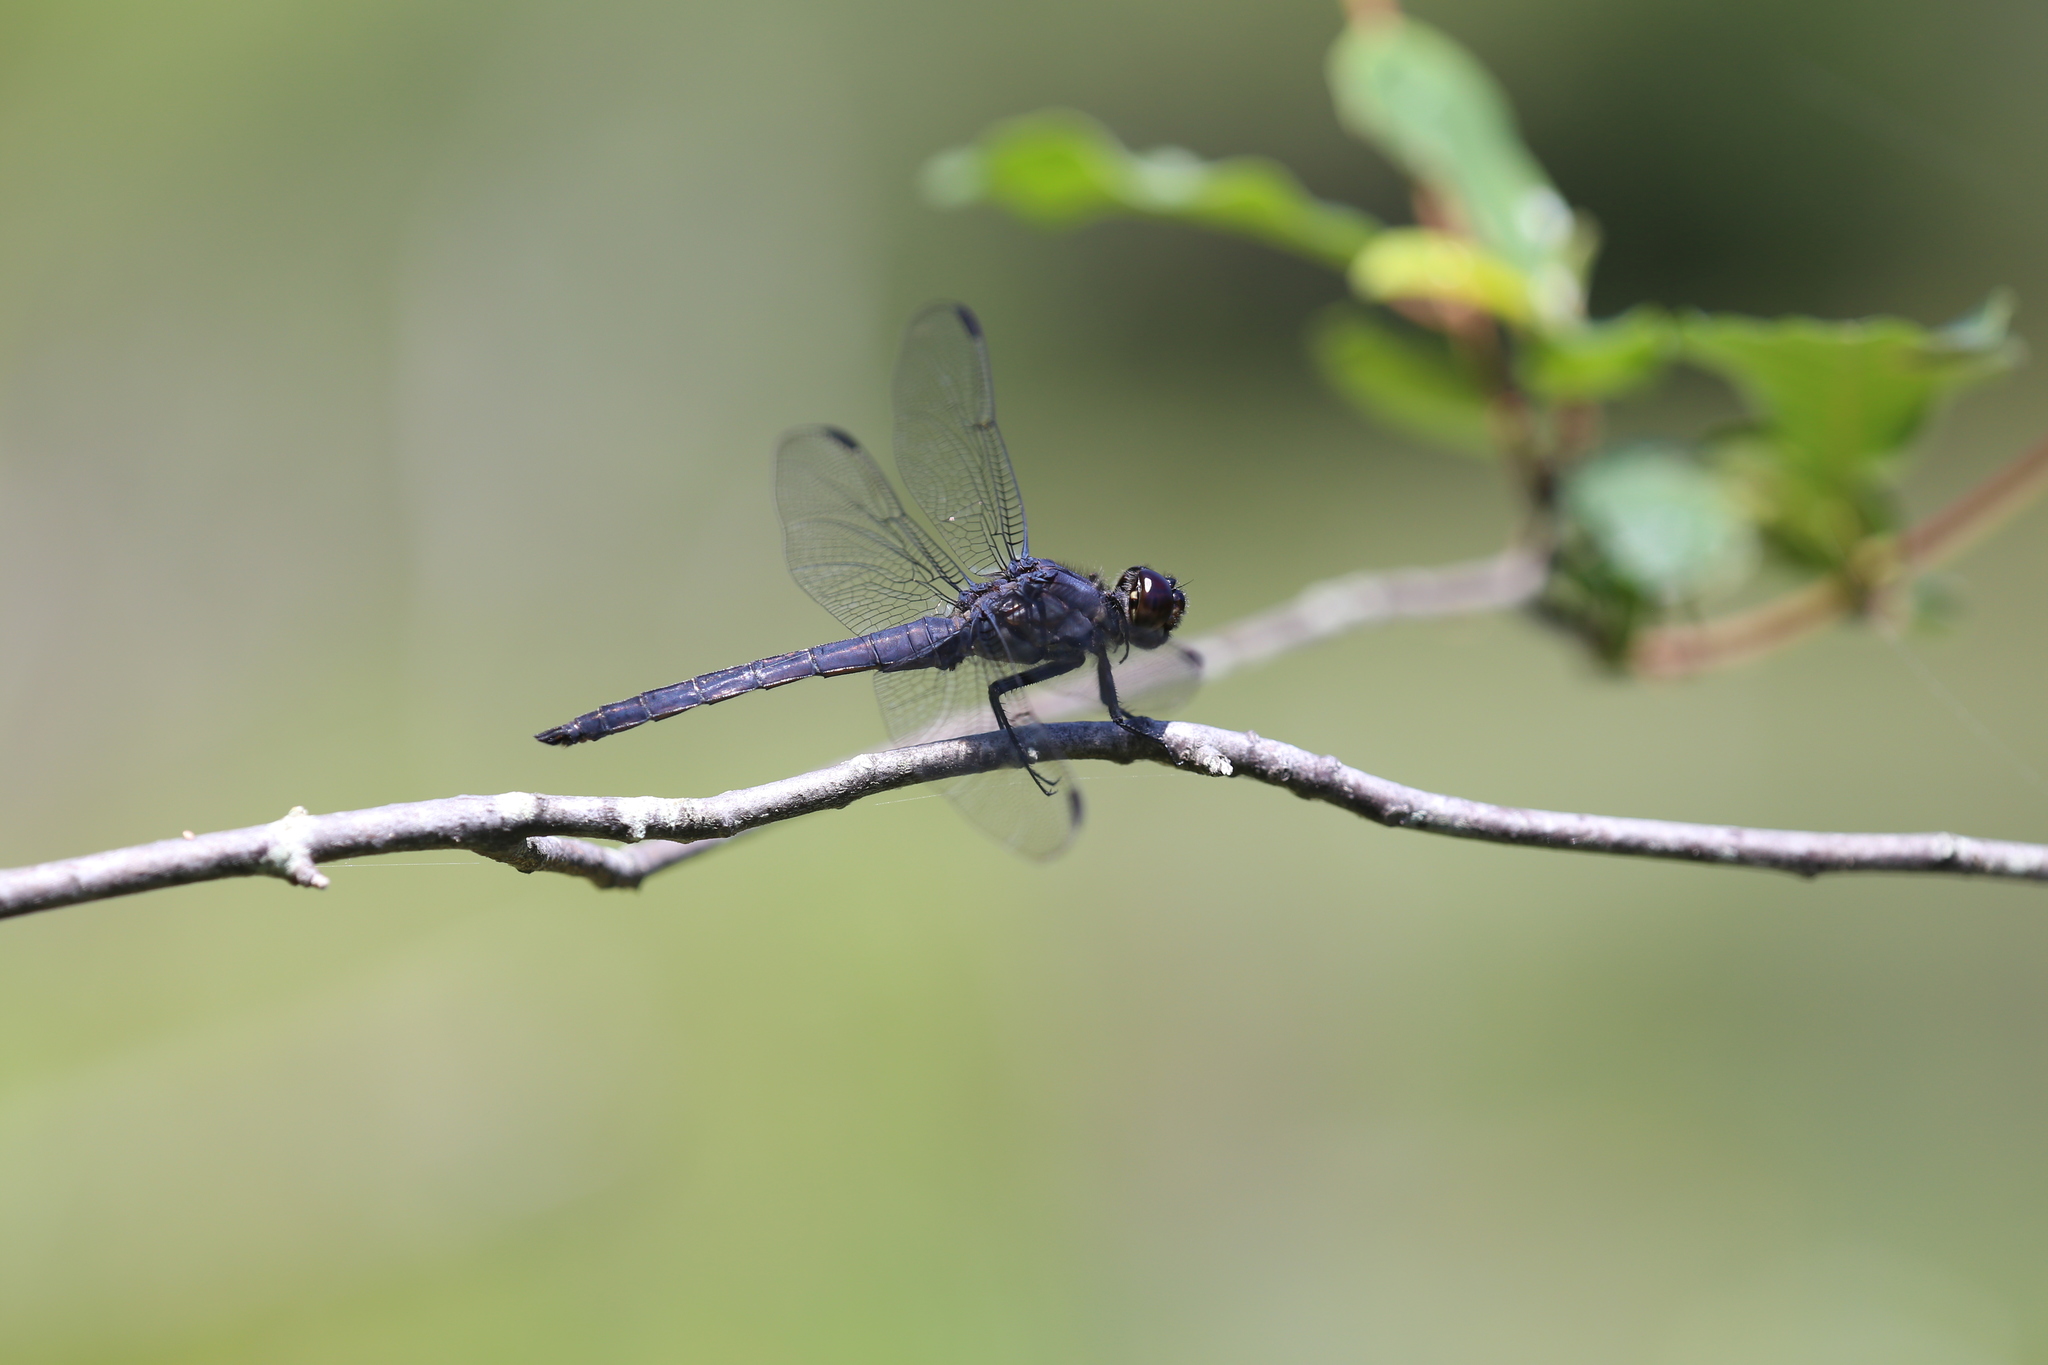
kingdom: Animalia
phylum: Arthropoda
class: Insecta
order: Odonata
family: Libellulidae
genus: Libellula
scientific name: Libellula incesta
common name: Slaty skimmer
